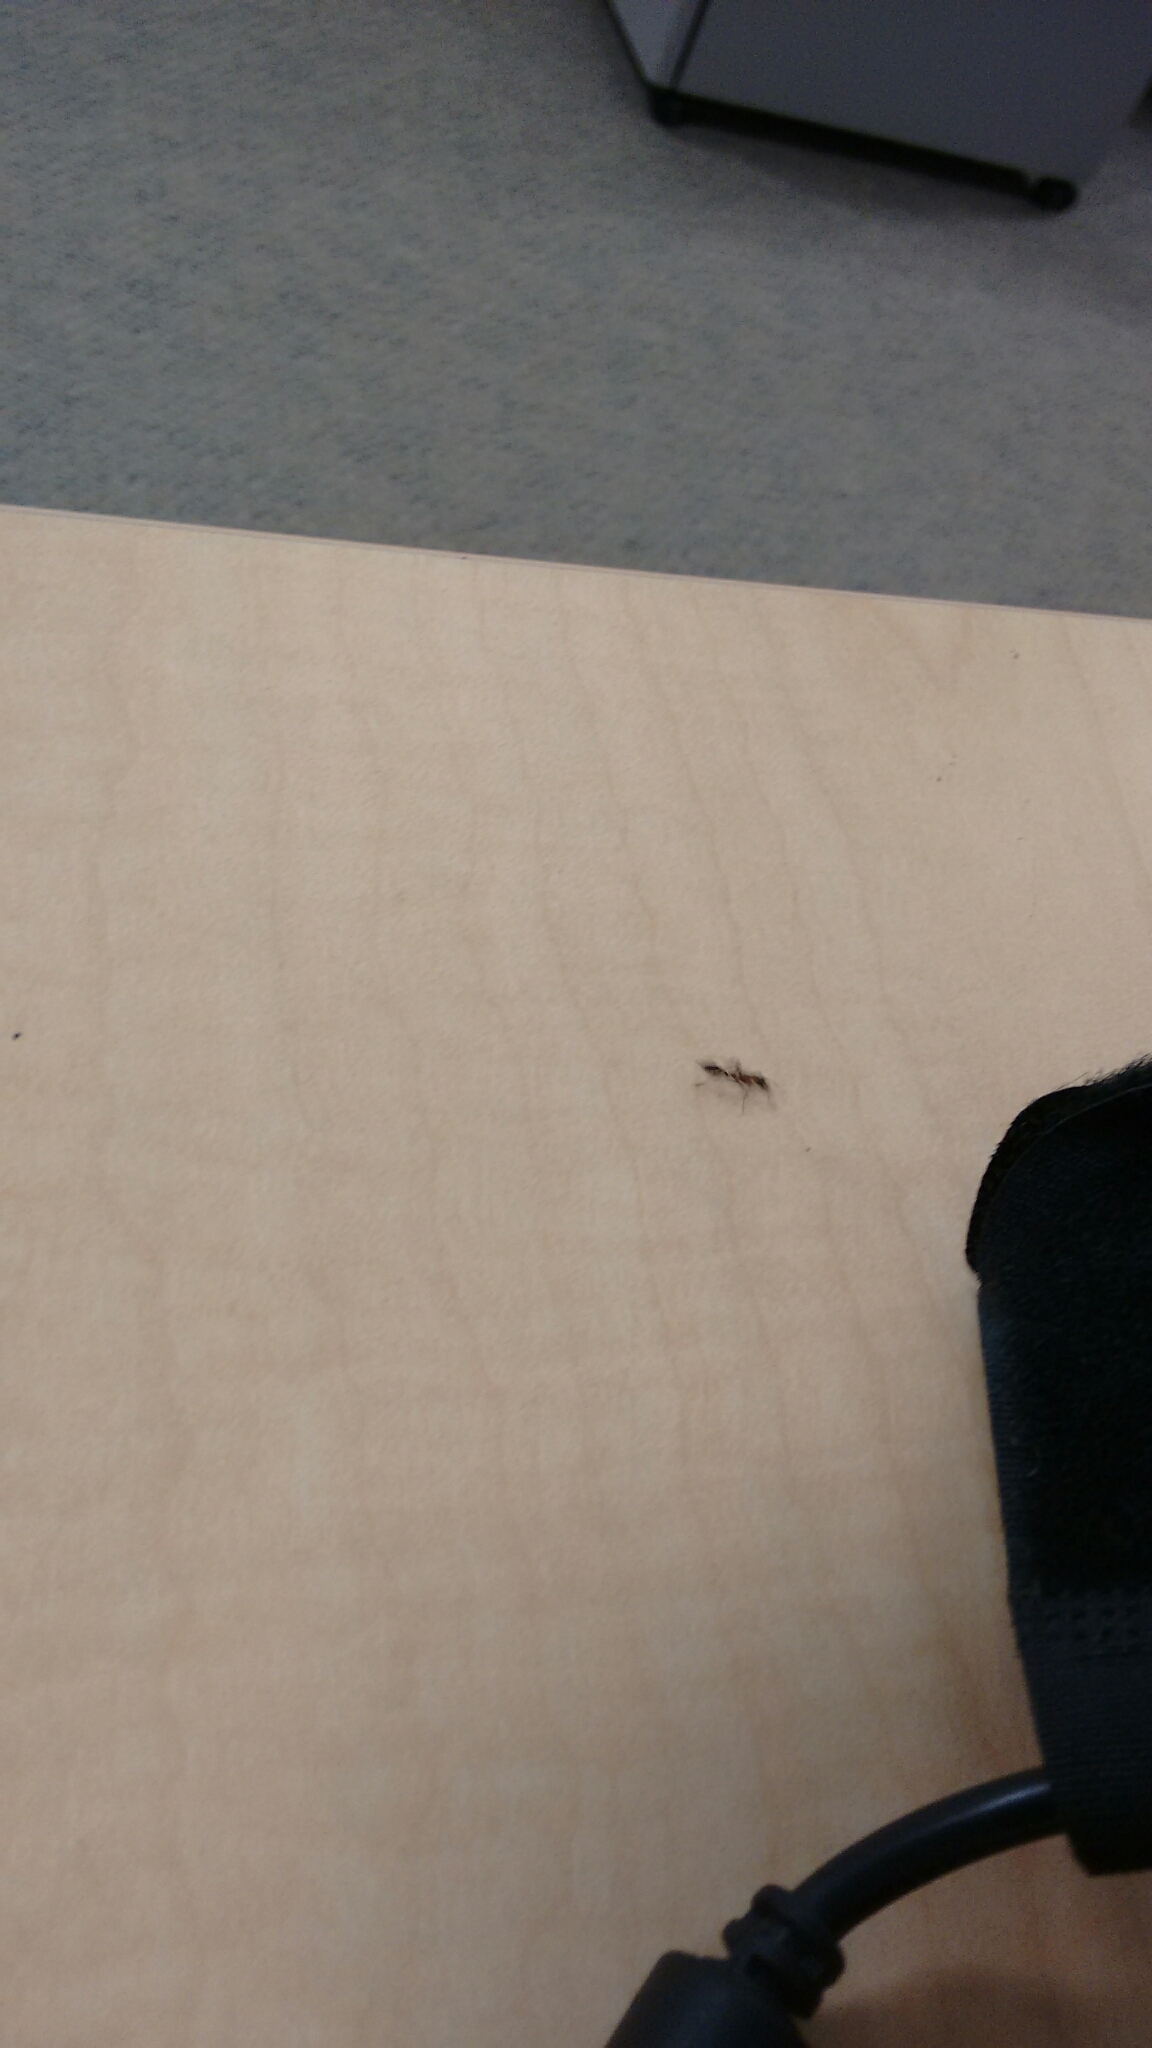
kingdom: Animalia
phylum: Arthropoda
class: Insecta
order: Hymenoptera
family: Formicidae
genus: Pseudomyrmex
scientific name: Pseudomyrmex gracilis
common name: Graceful twig ant
